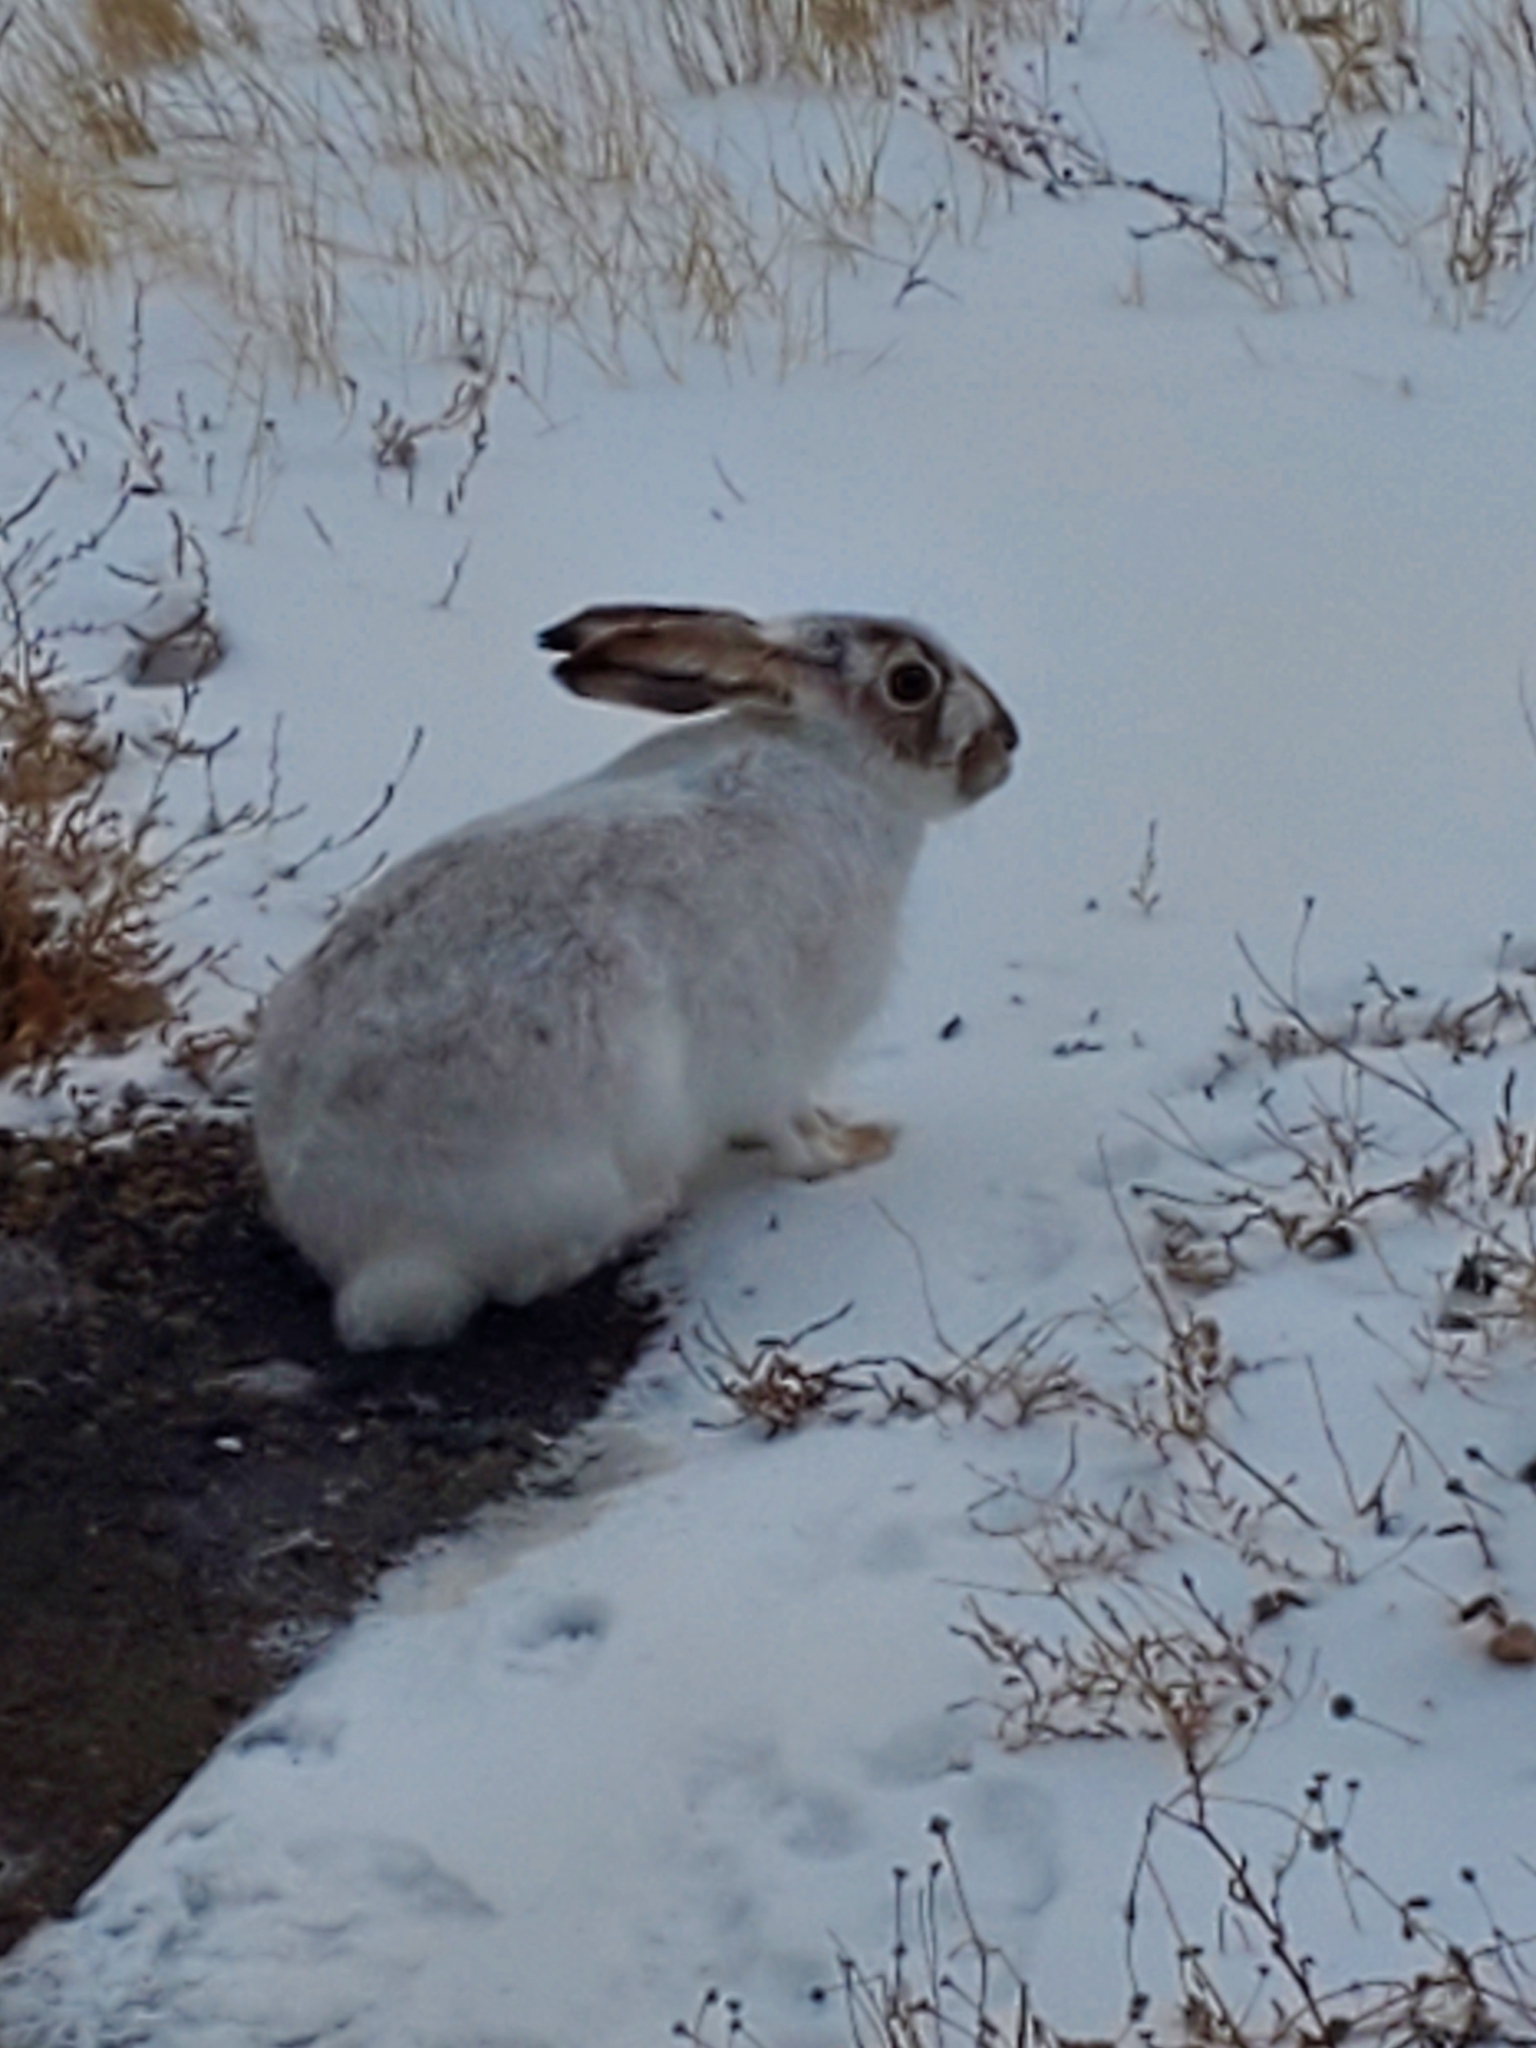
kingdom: Animalia
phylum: Chordata
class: Mammalia
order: Lagomorpha
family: Leporidae
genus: Lepus
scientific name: Lepus townsendii
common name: White-tailed jackrabbit
